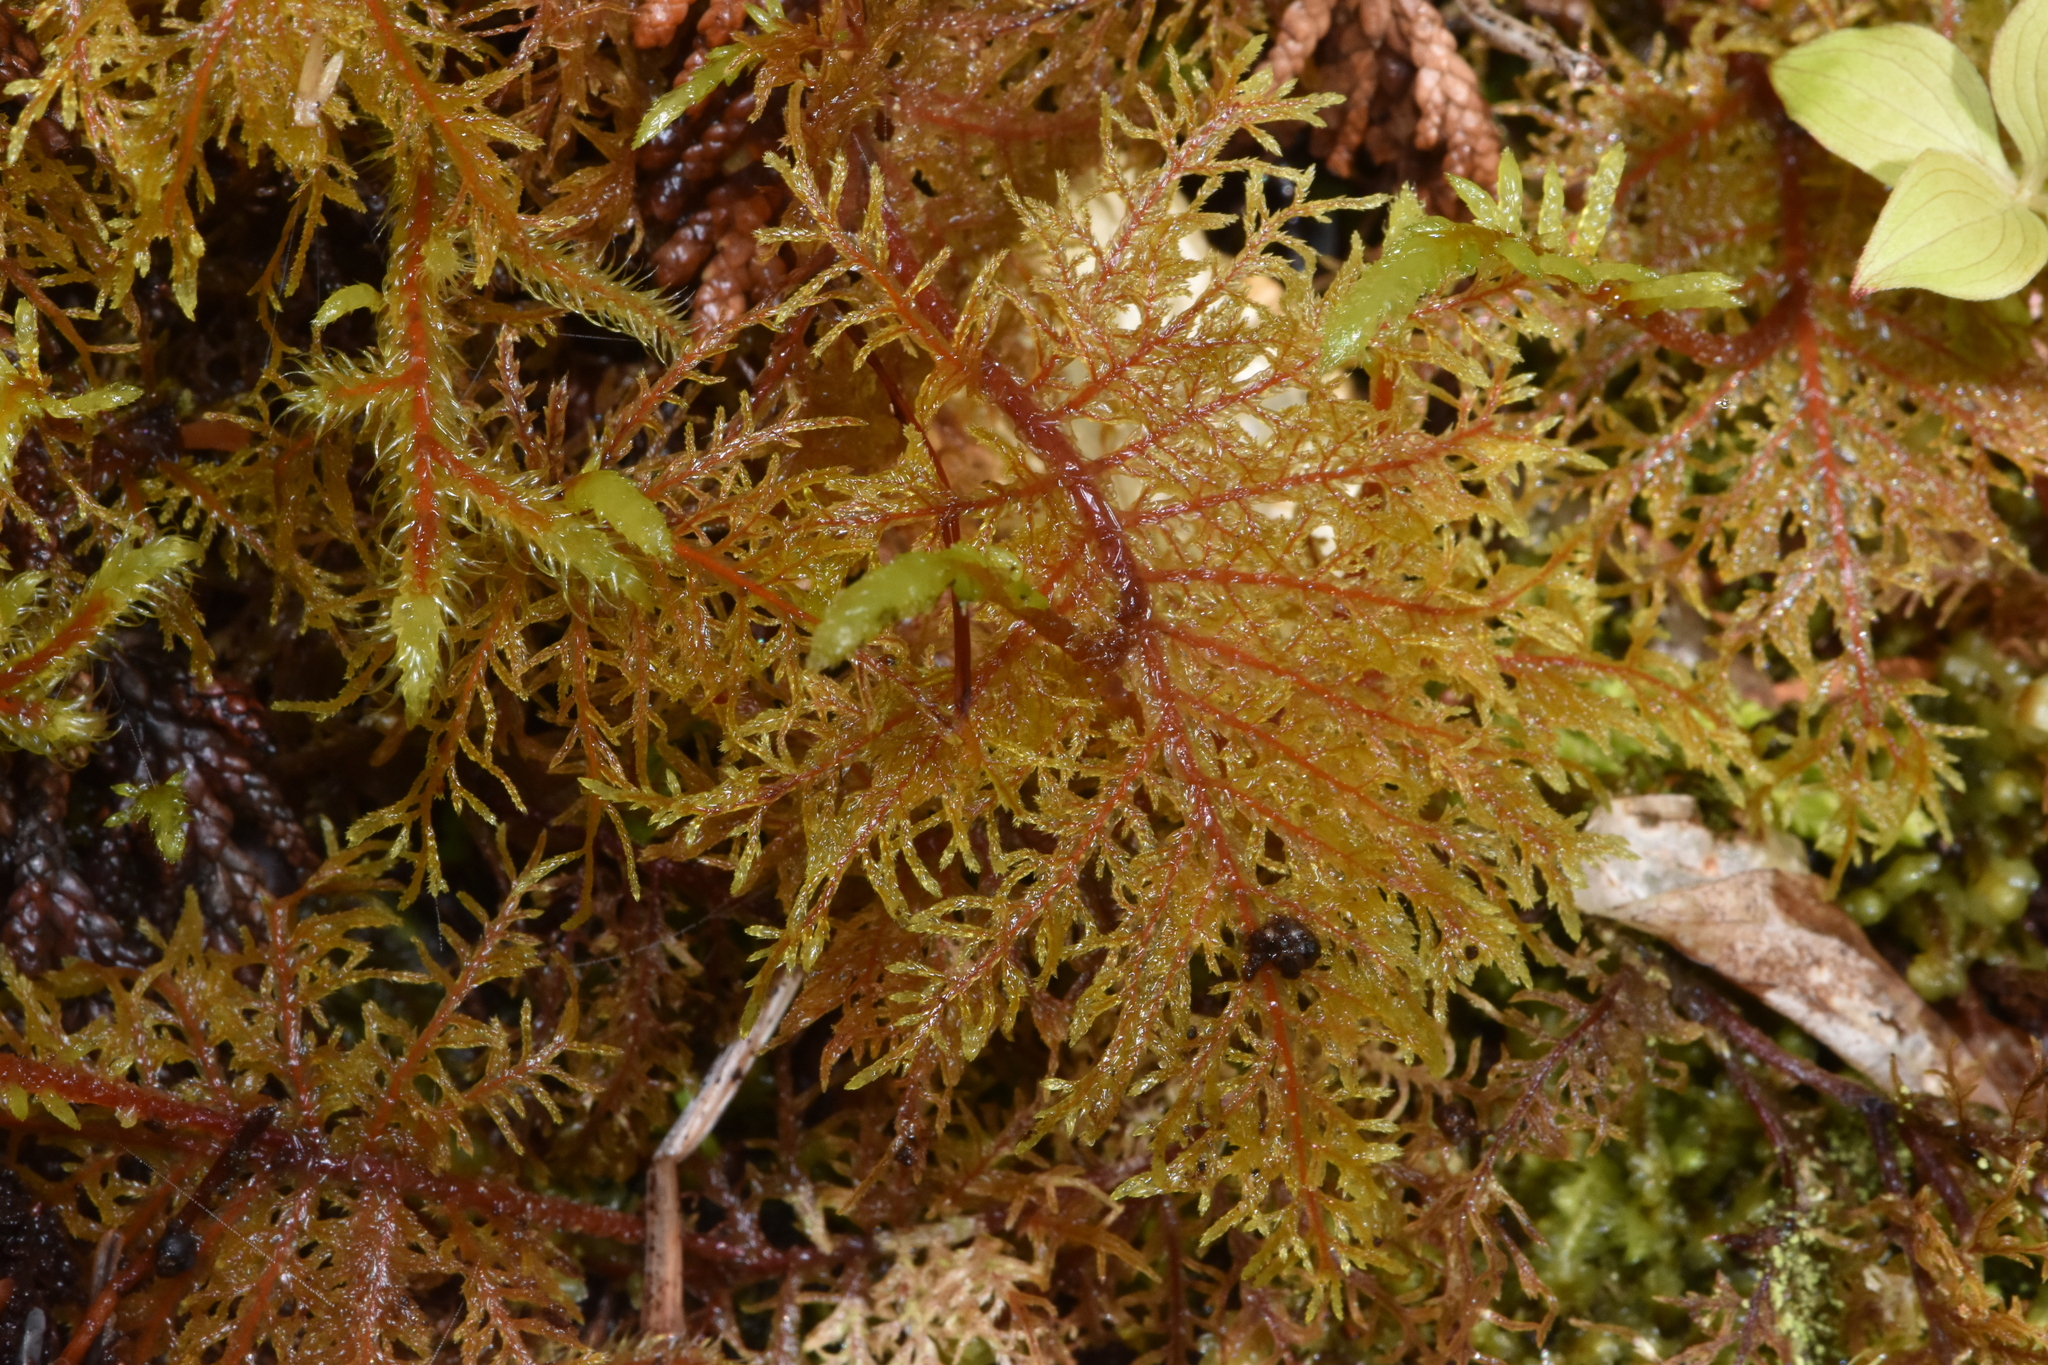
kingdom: Plantae
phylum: Bryophyta
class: Bryopsida
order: Hypnales
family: Hylocomiaceae
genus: Hylocomium
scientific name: Hylocomium splendens
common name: Stairstep moss
